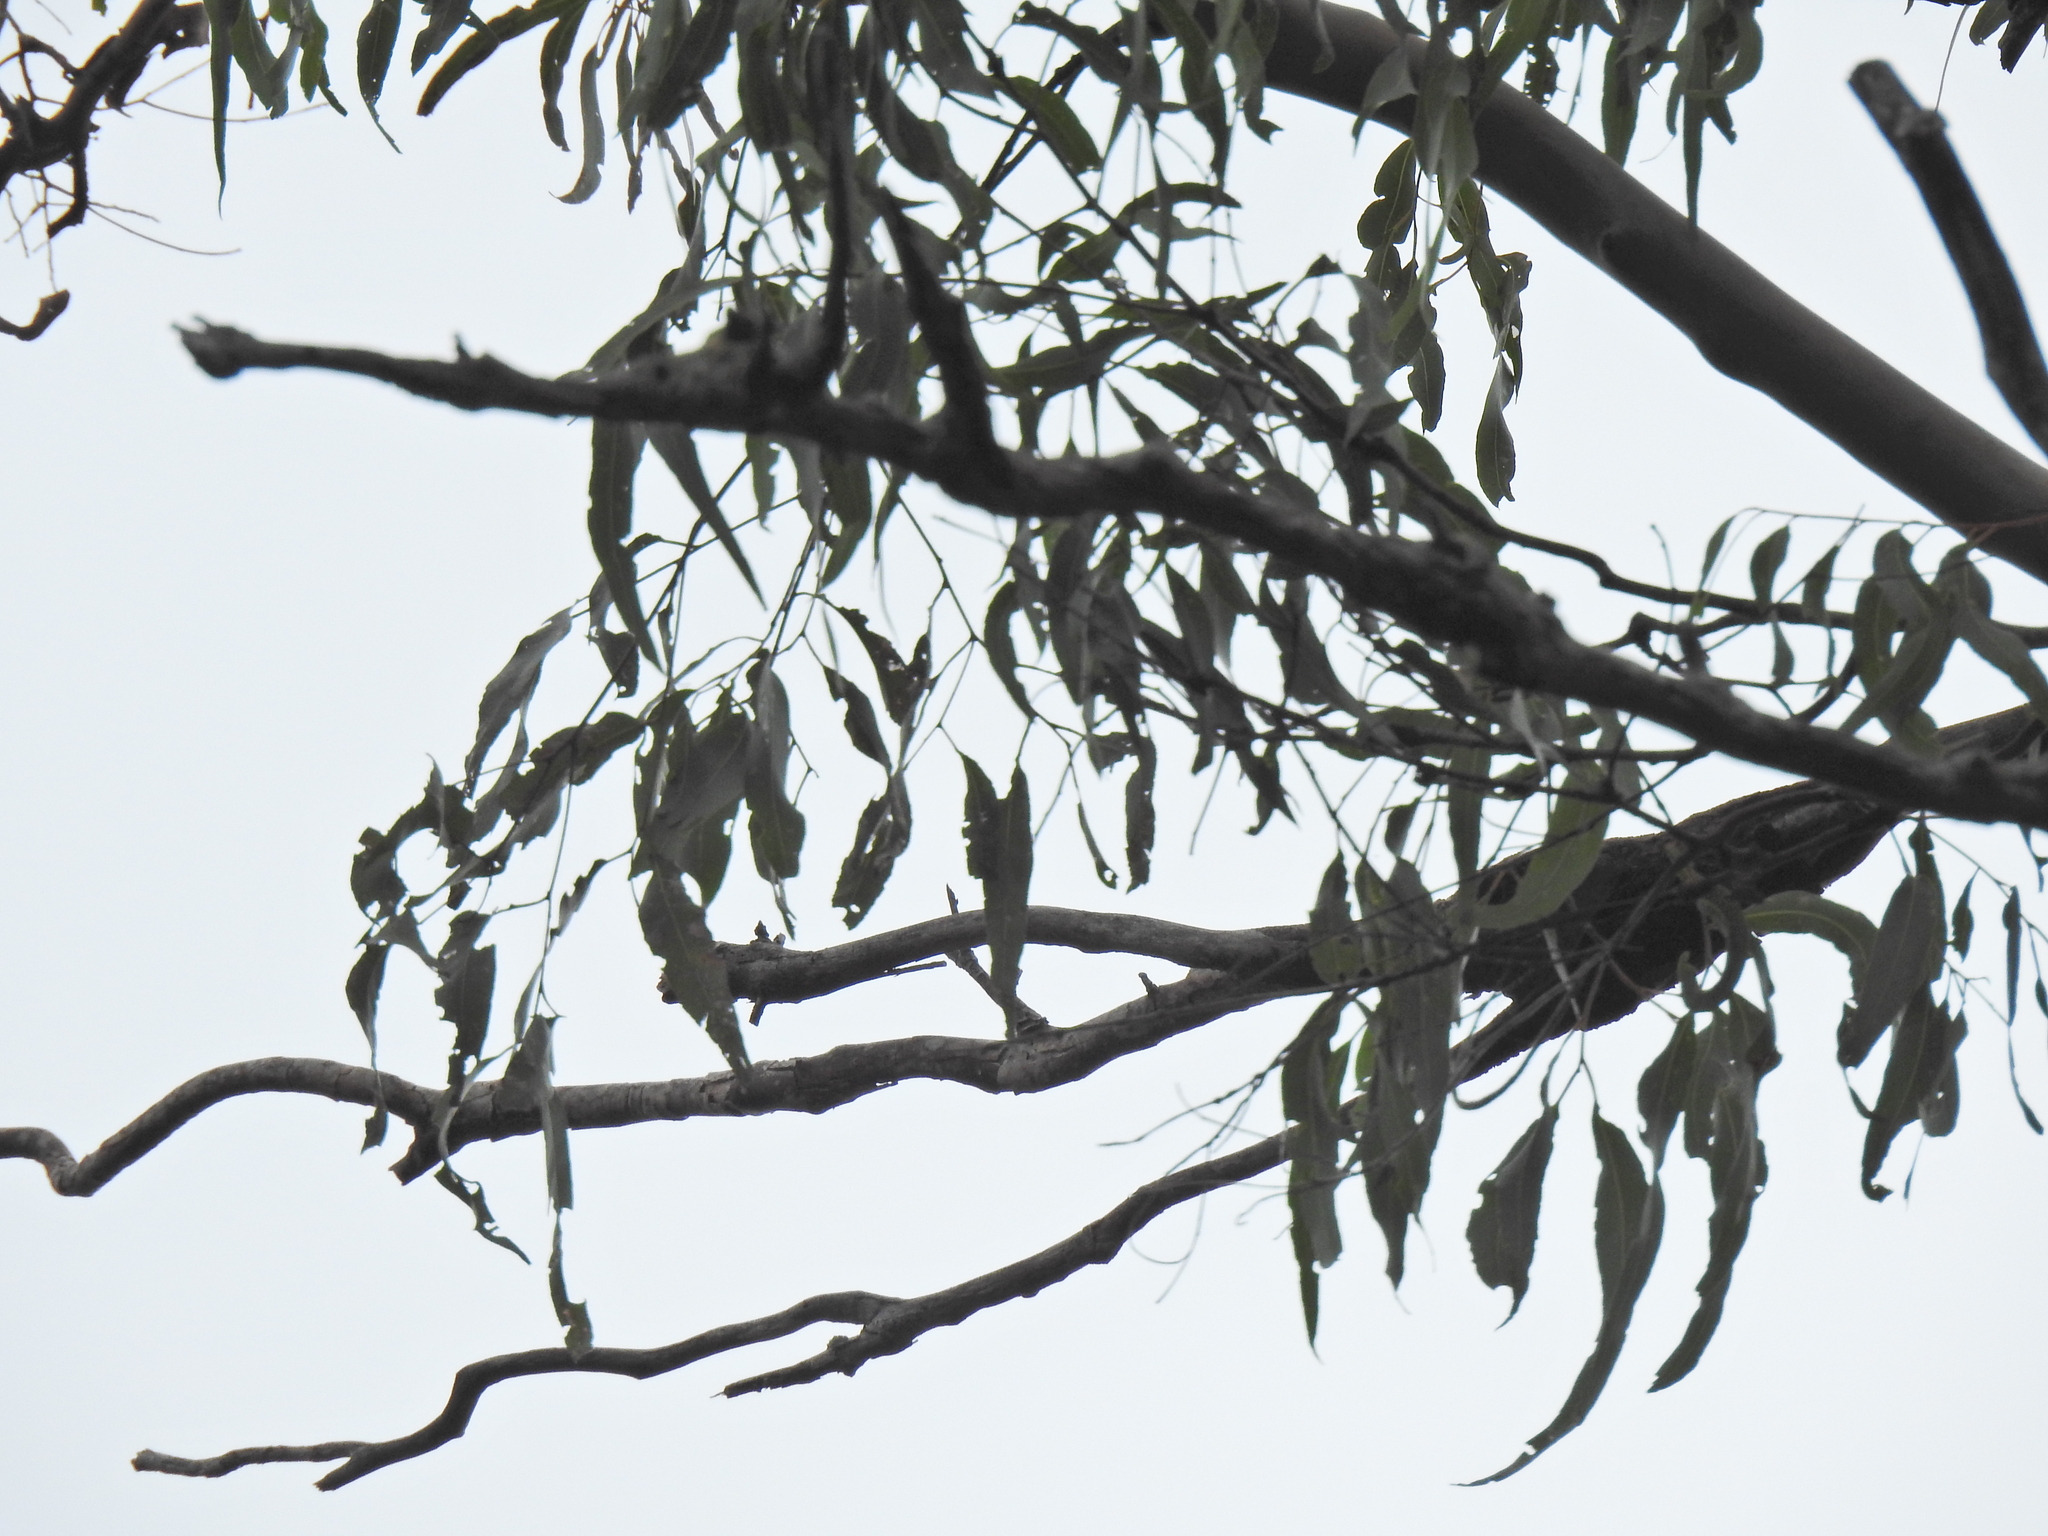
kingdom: Plantae
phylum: Tracheophyta
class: Magnoliopsida
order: Myrtales
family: Myrtaceae
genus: Corymbia
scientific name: Corymbia citriodora
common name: Lemonscented gum
